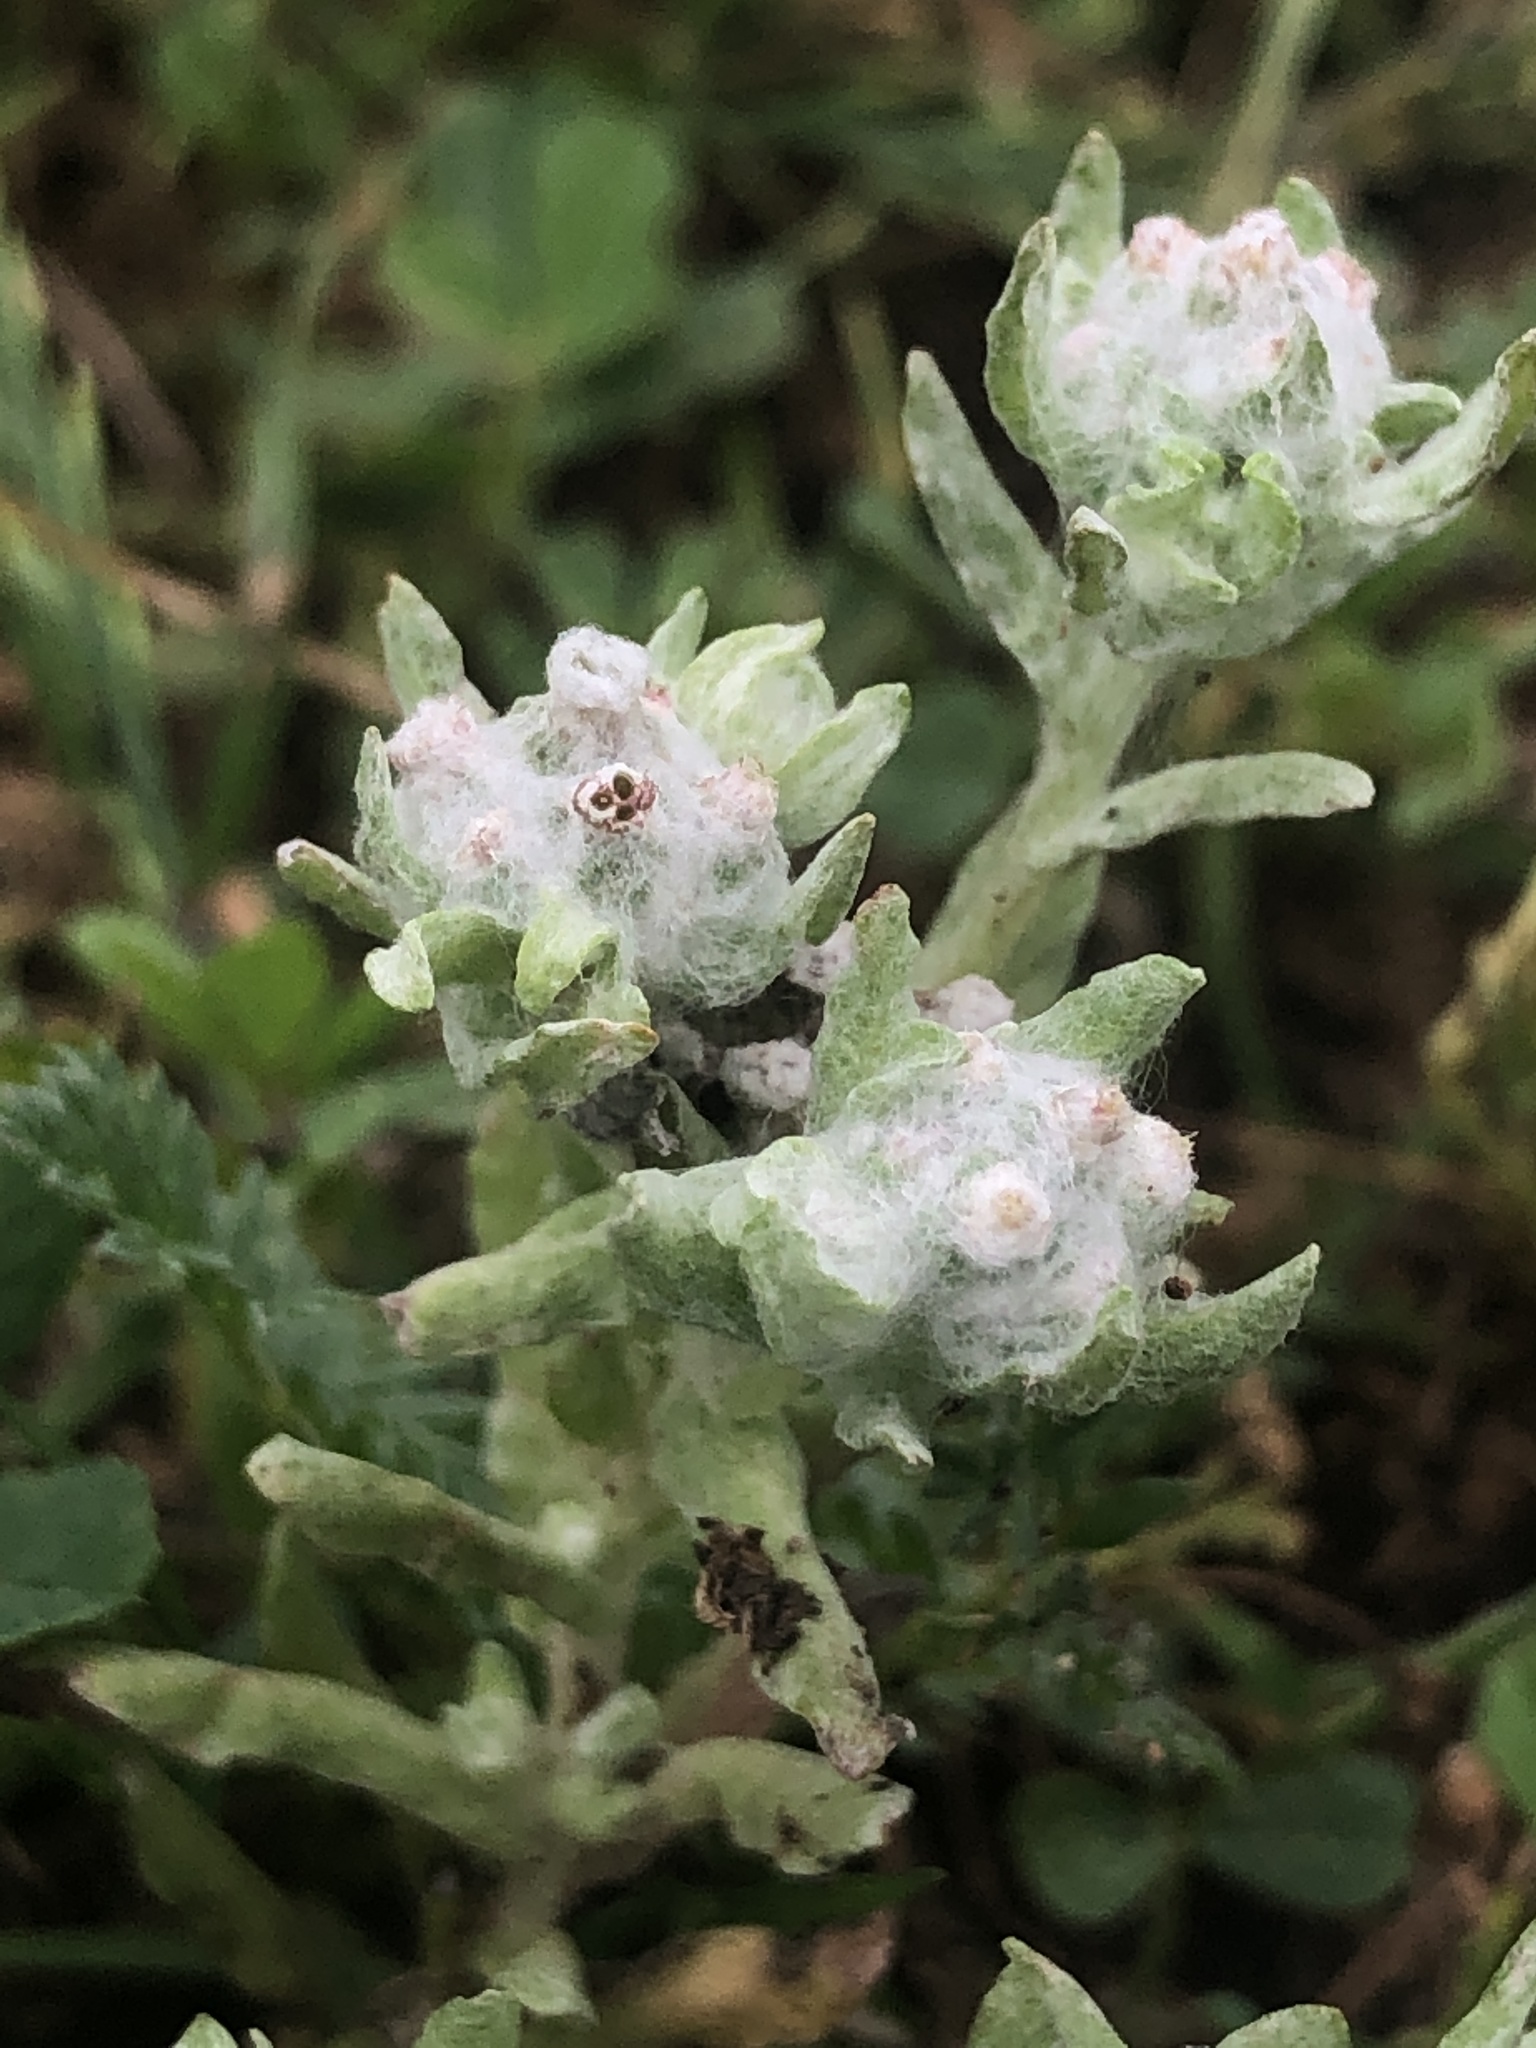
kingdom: Plantae
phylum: Tracheophyta
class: Magnoliopsida
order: Asterales
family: Asteraceae
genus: Diaperia
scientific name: Diaperia verna
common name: Many-stem rabbit-tobacco
